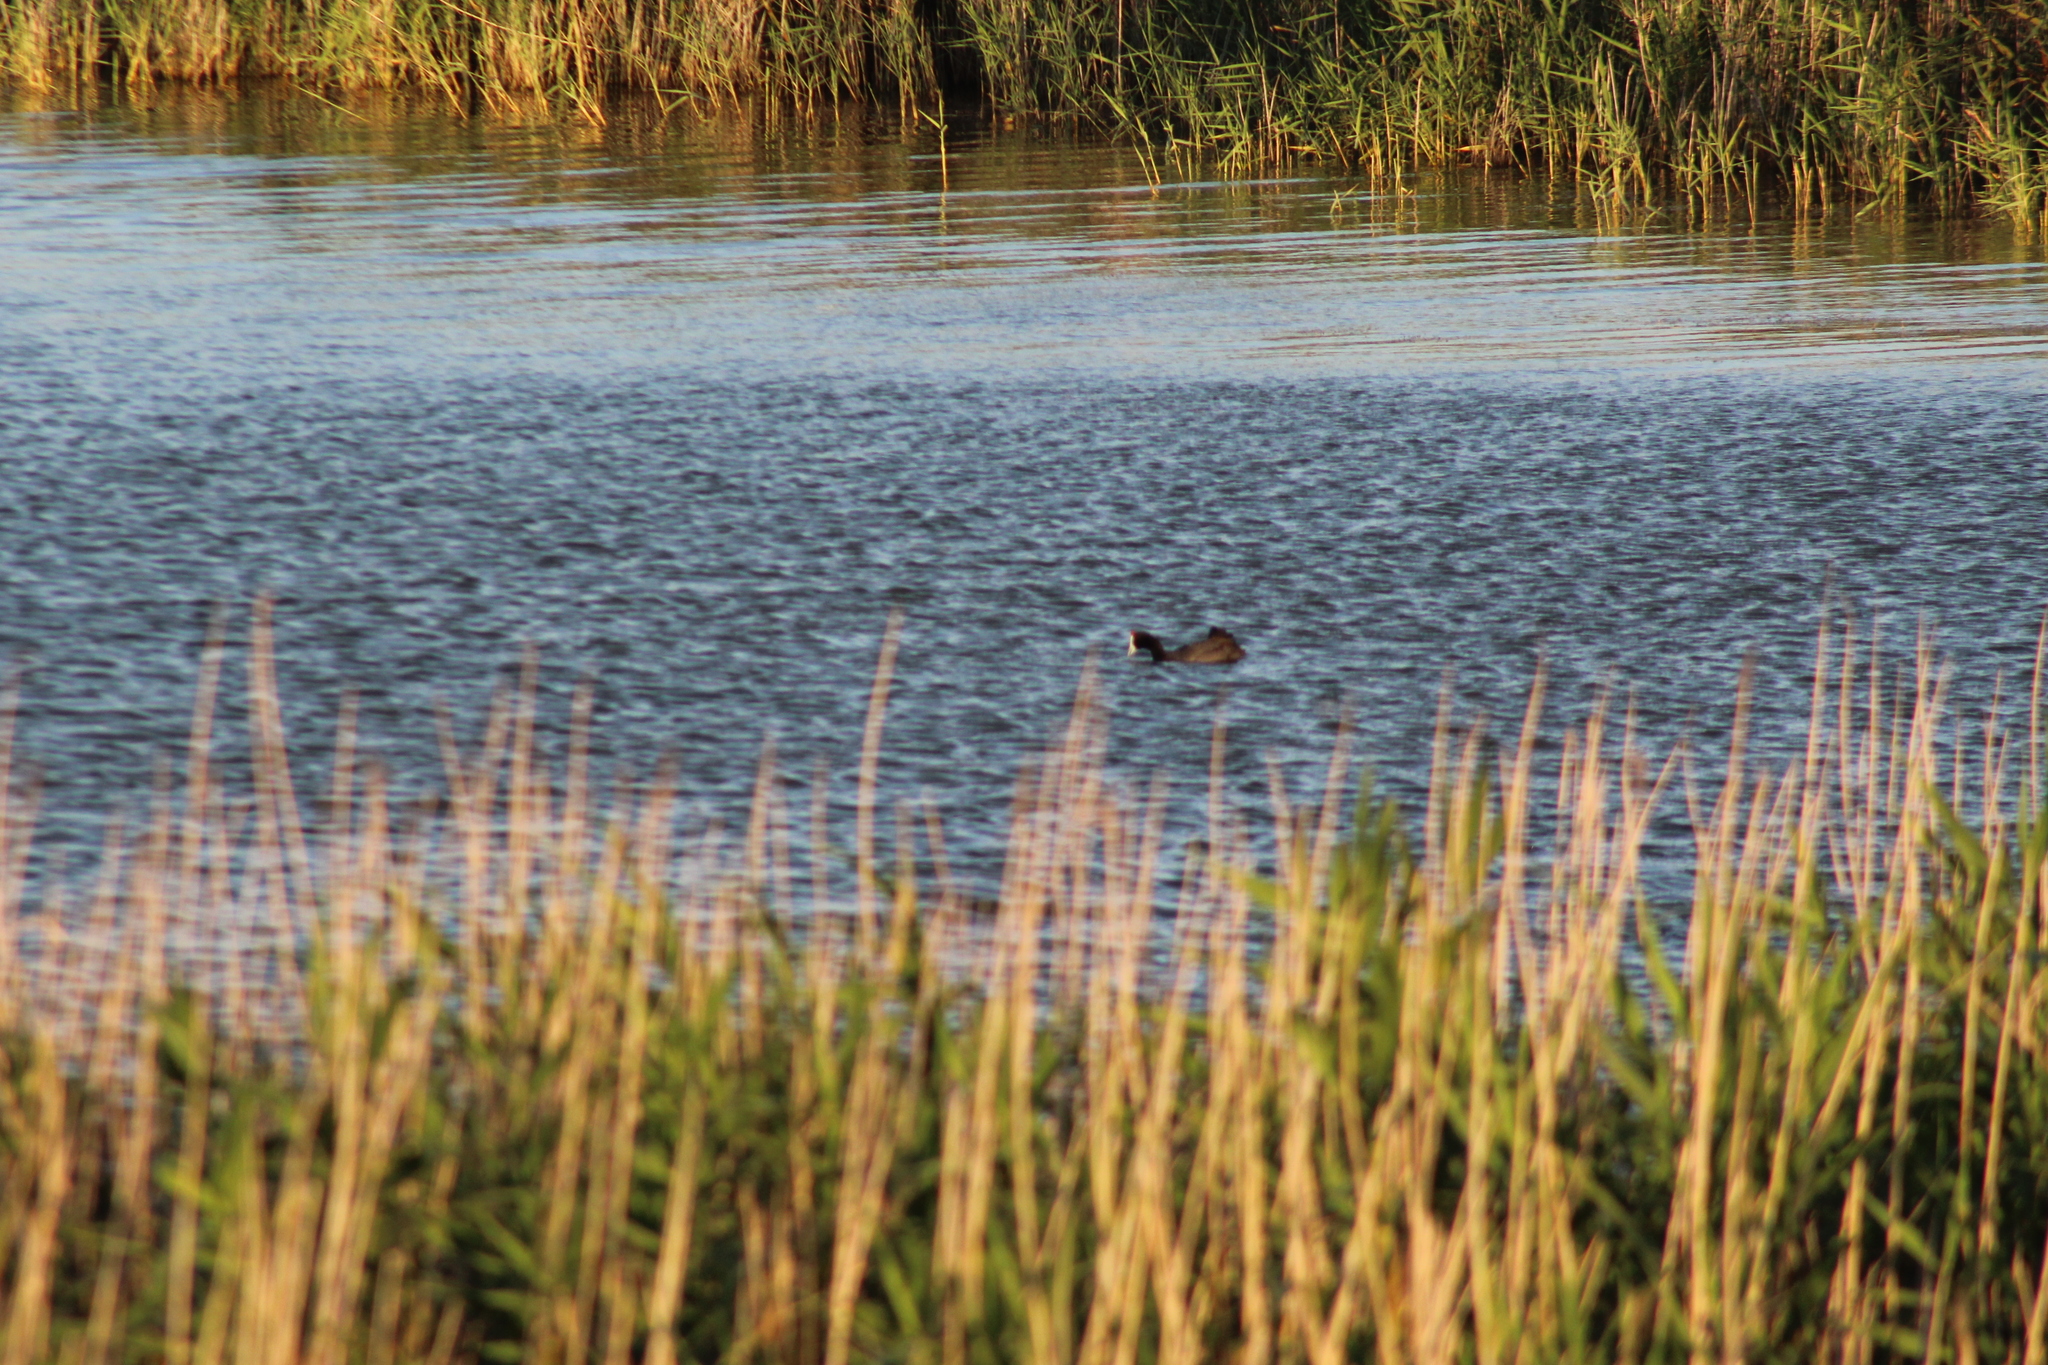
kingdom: Animalia
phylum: Chordata
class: Aves
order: Gruiformes
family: Rallidae
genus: Fulica
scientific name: Fulica cristata
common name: Red-knobbed coot
